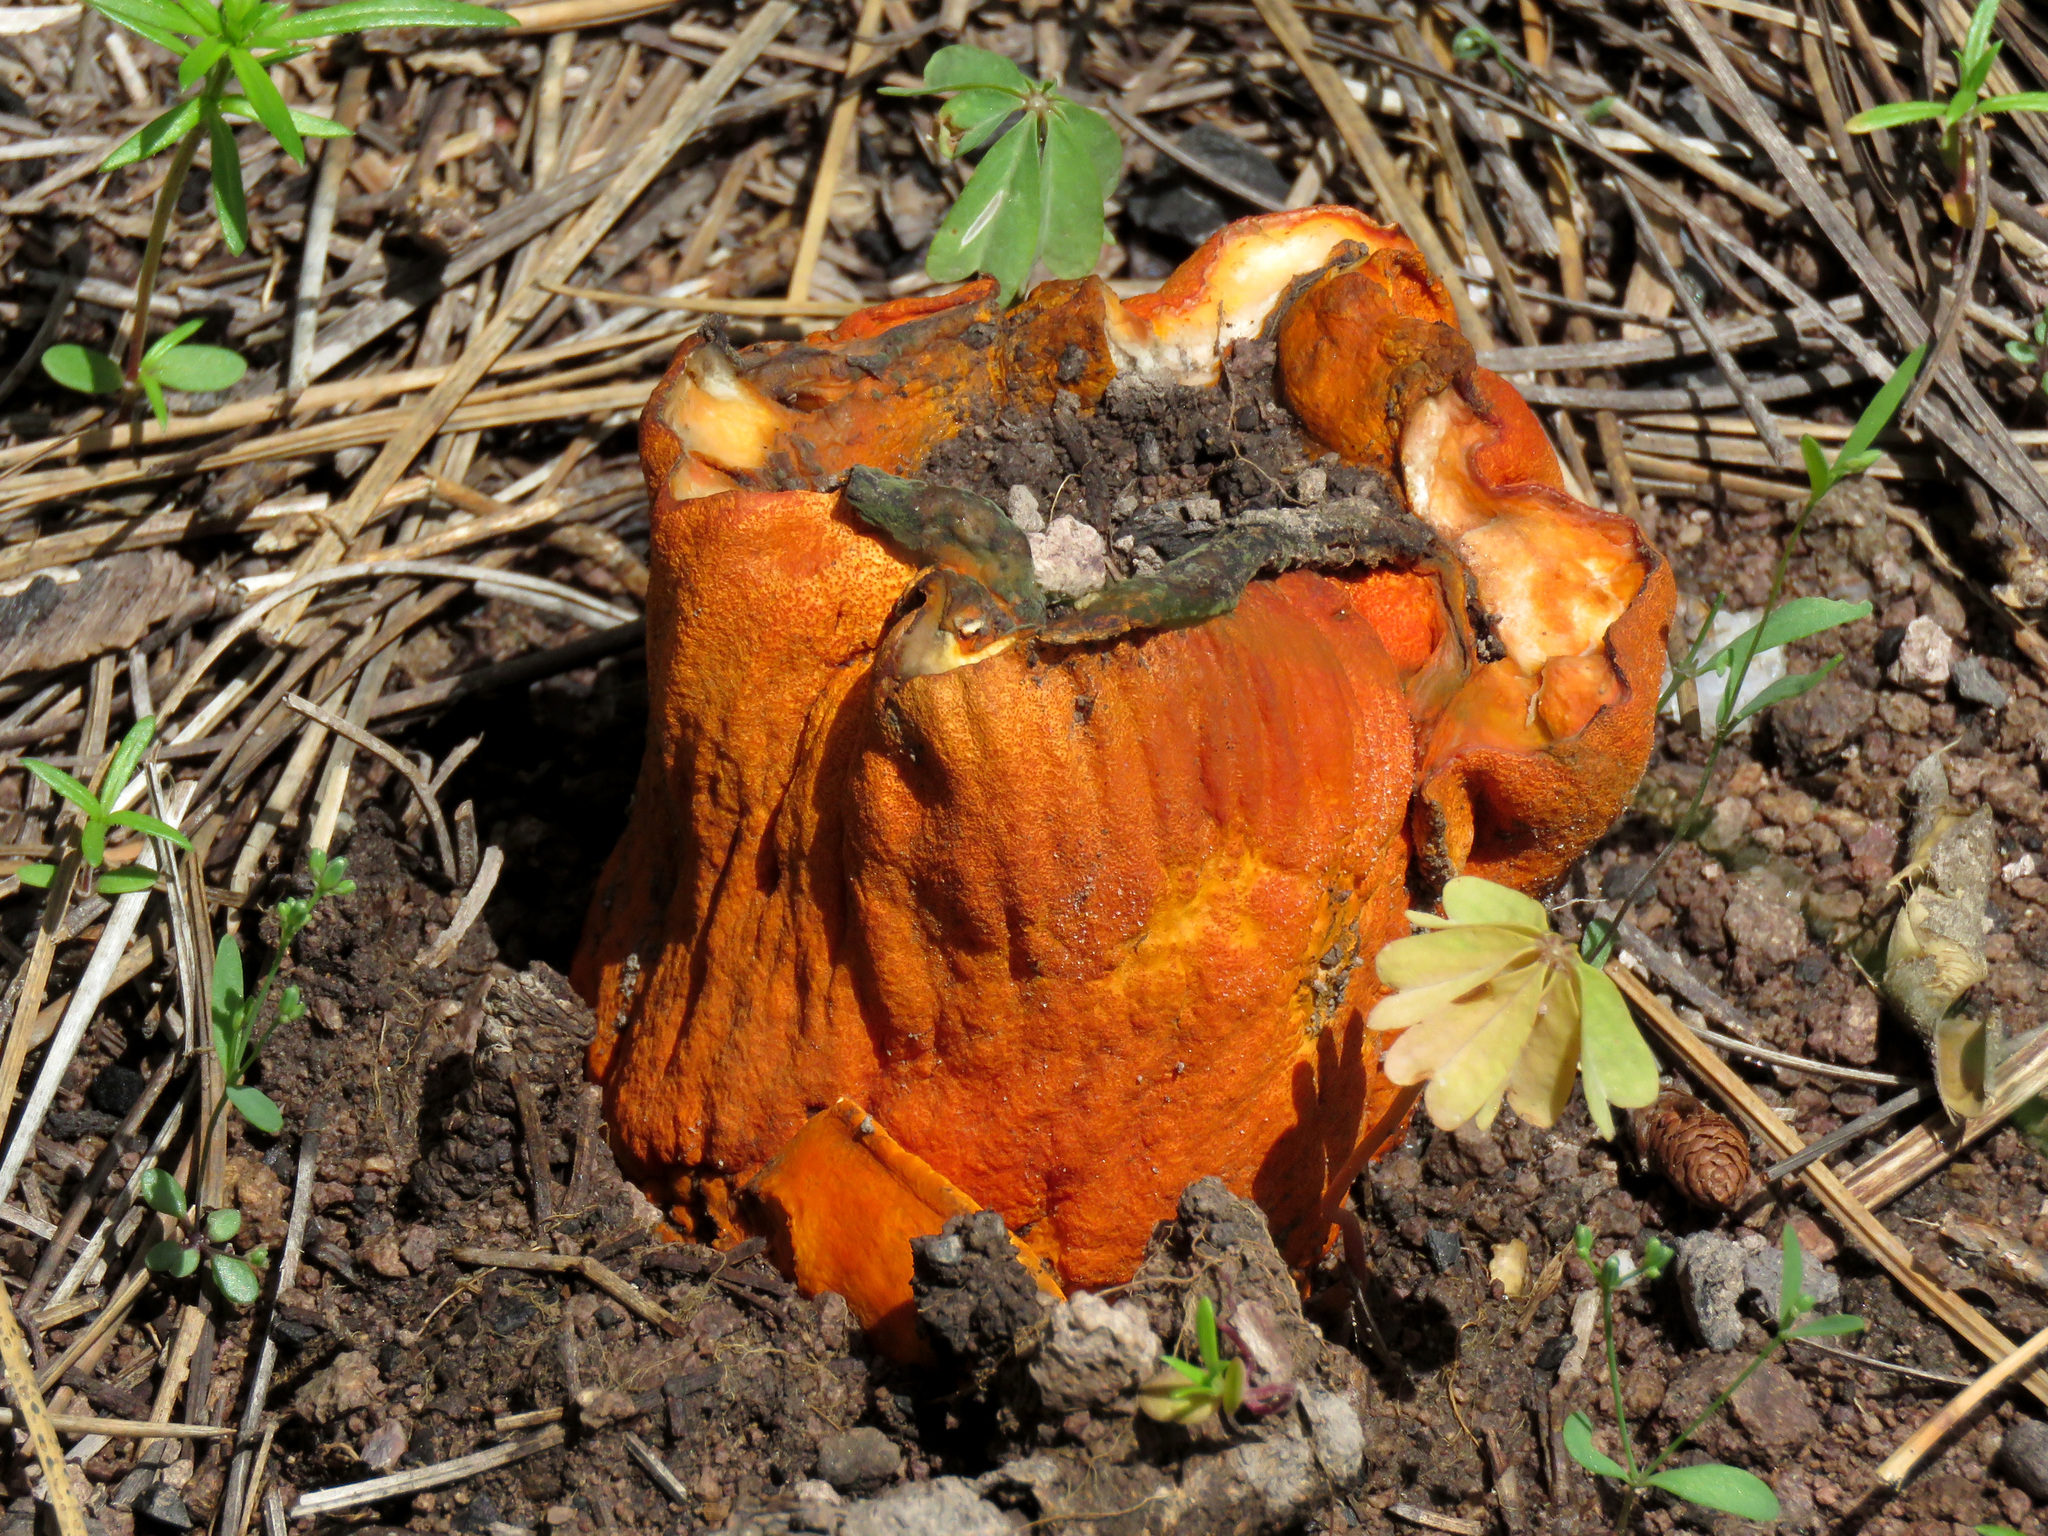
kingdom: Fungi
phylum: Ascomycota
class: Sordariomycetes
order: Hypocreales
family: Hypocreaceae
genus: Hypomyces
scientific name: Hypomyces lactifluorum
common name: Lobster mushroom
